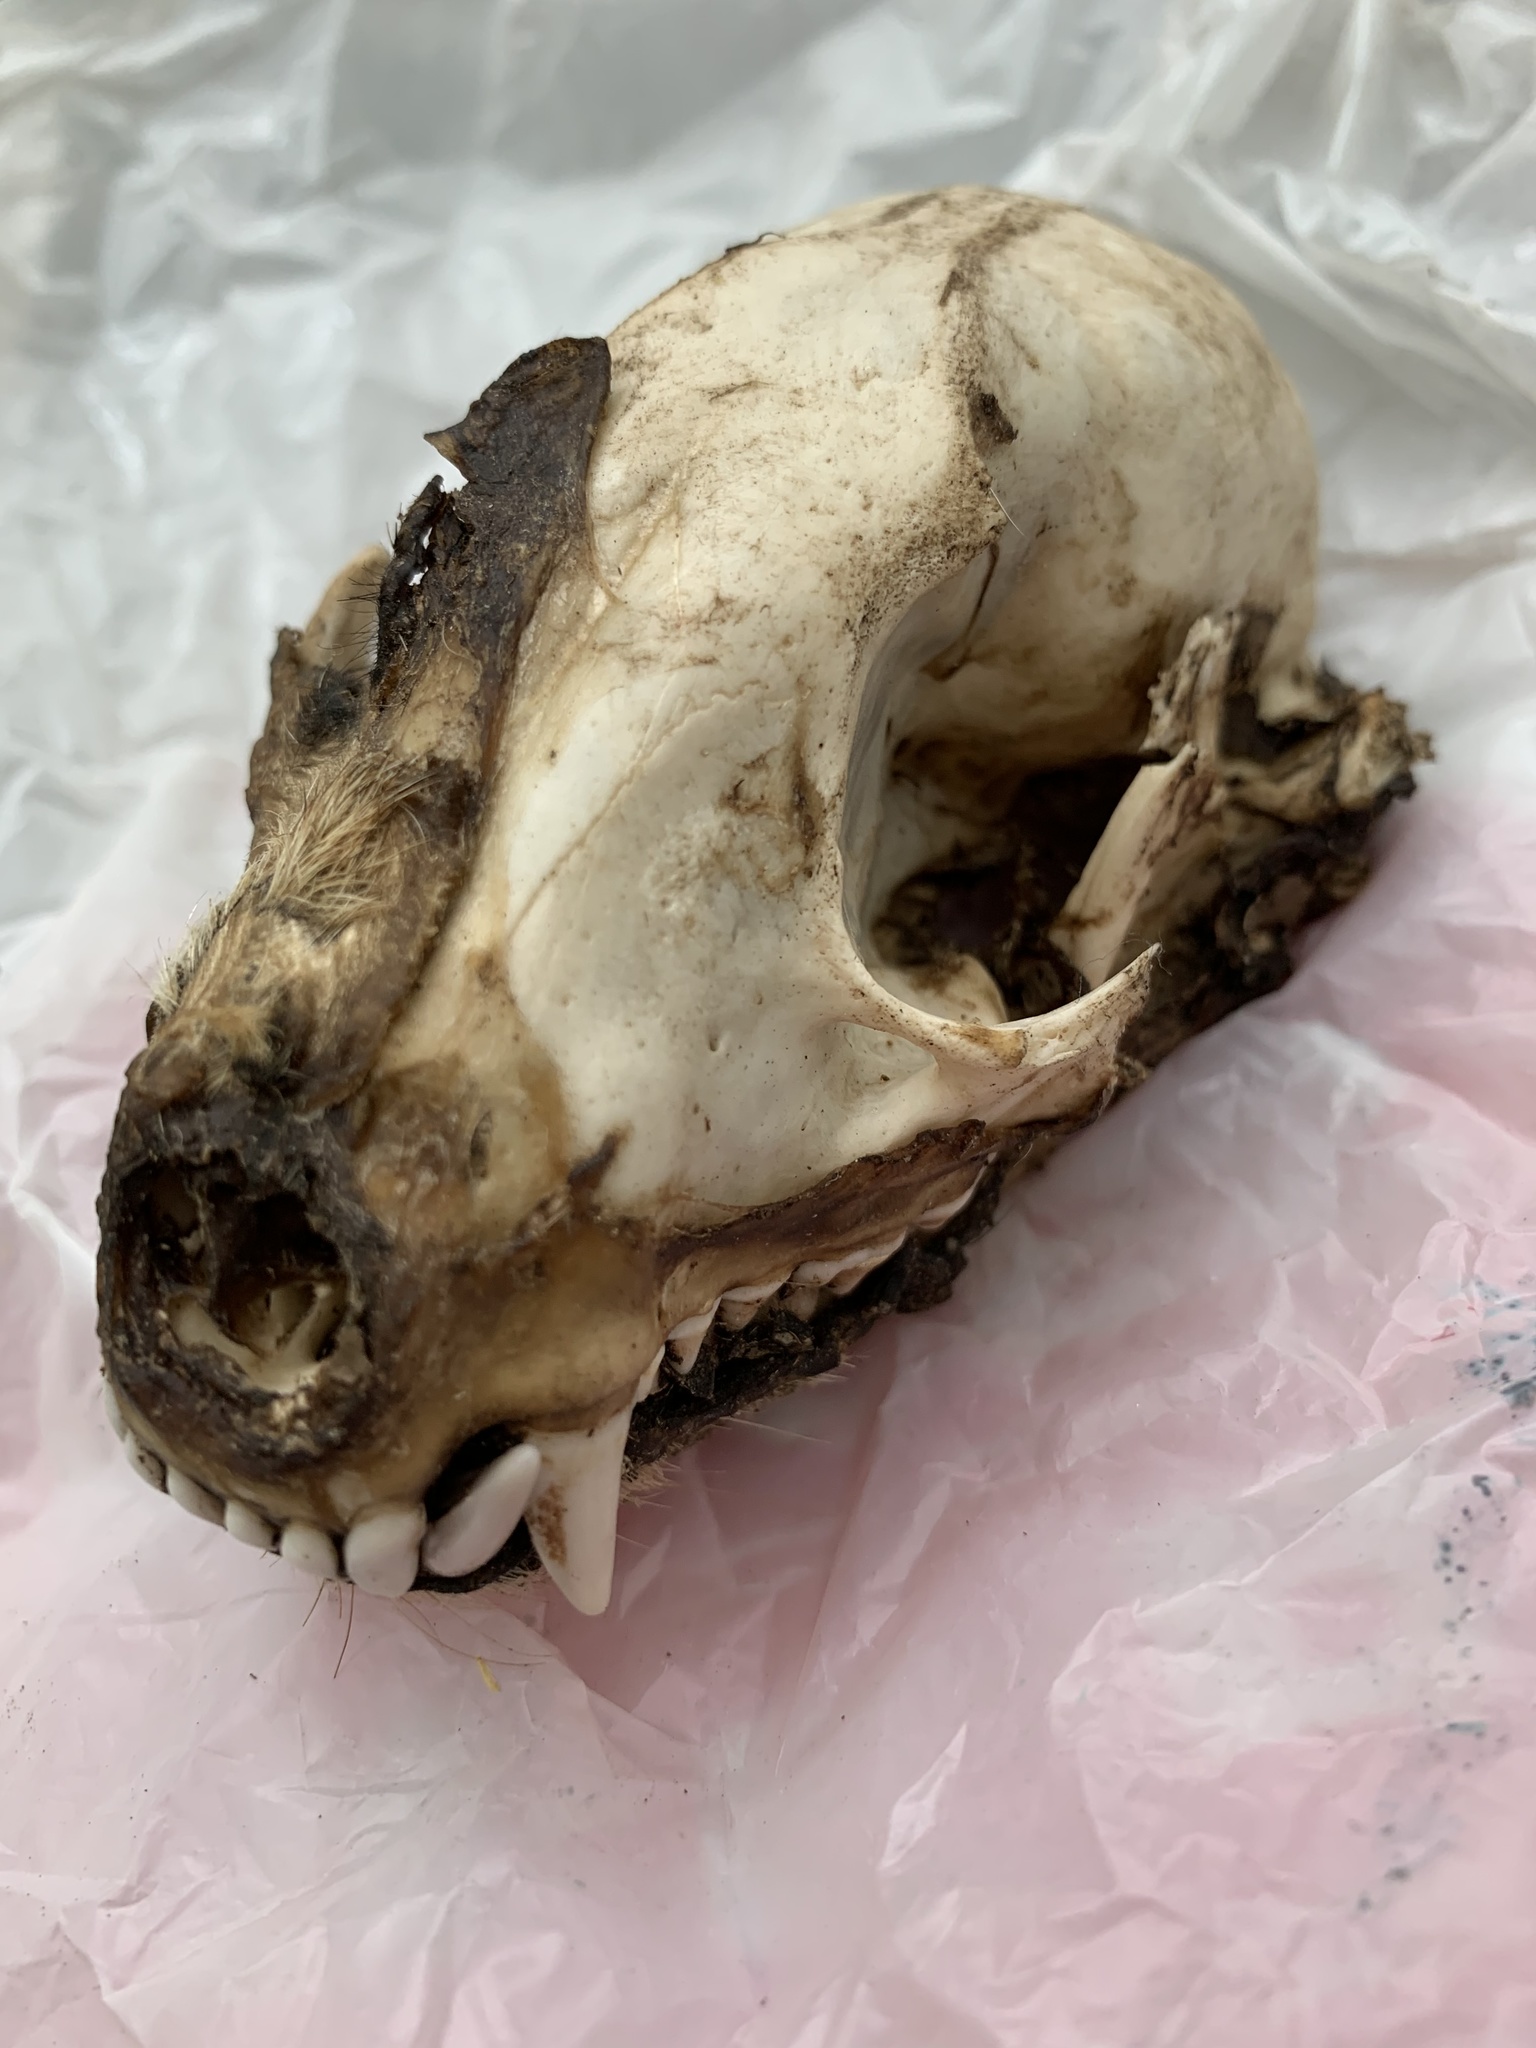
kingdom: Animalia
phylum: Chordata
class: Mammalia
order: Carnivora
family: Procyonidae
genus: Procyon
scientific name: Procyon lotor
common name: Raccoon
